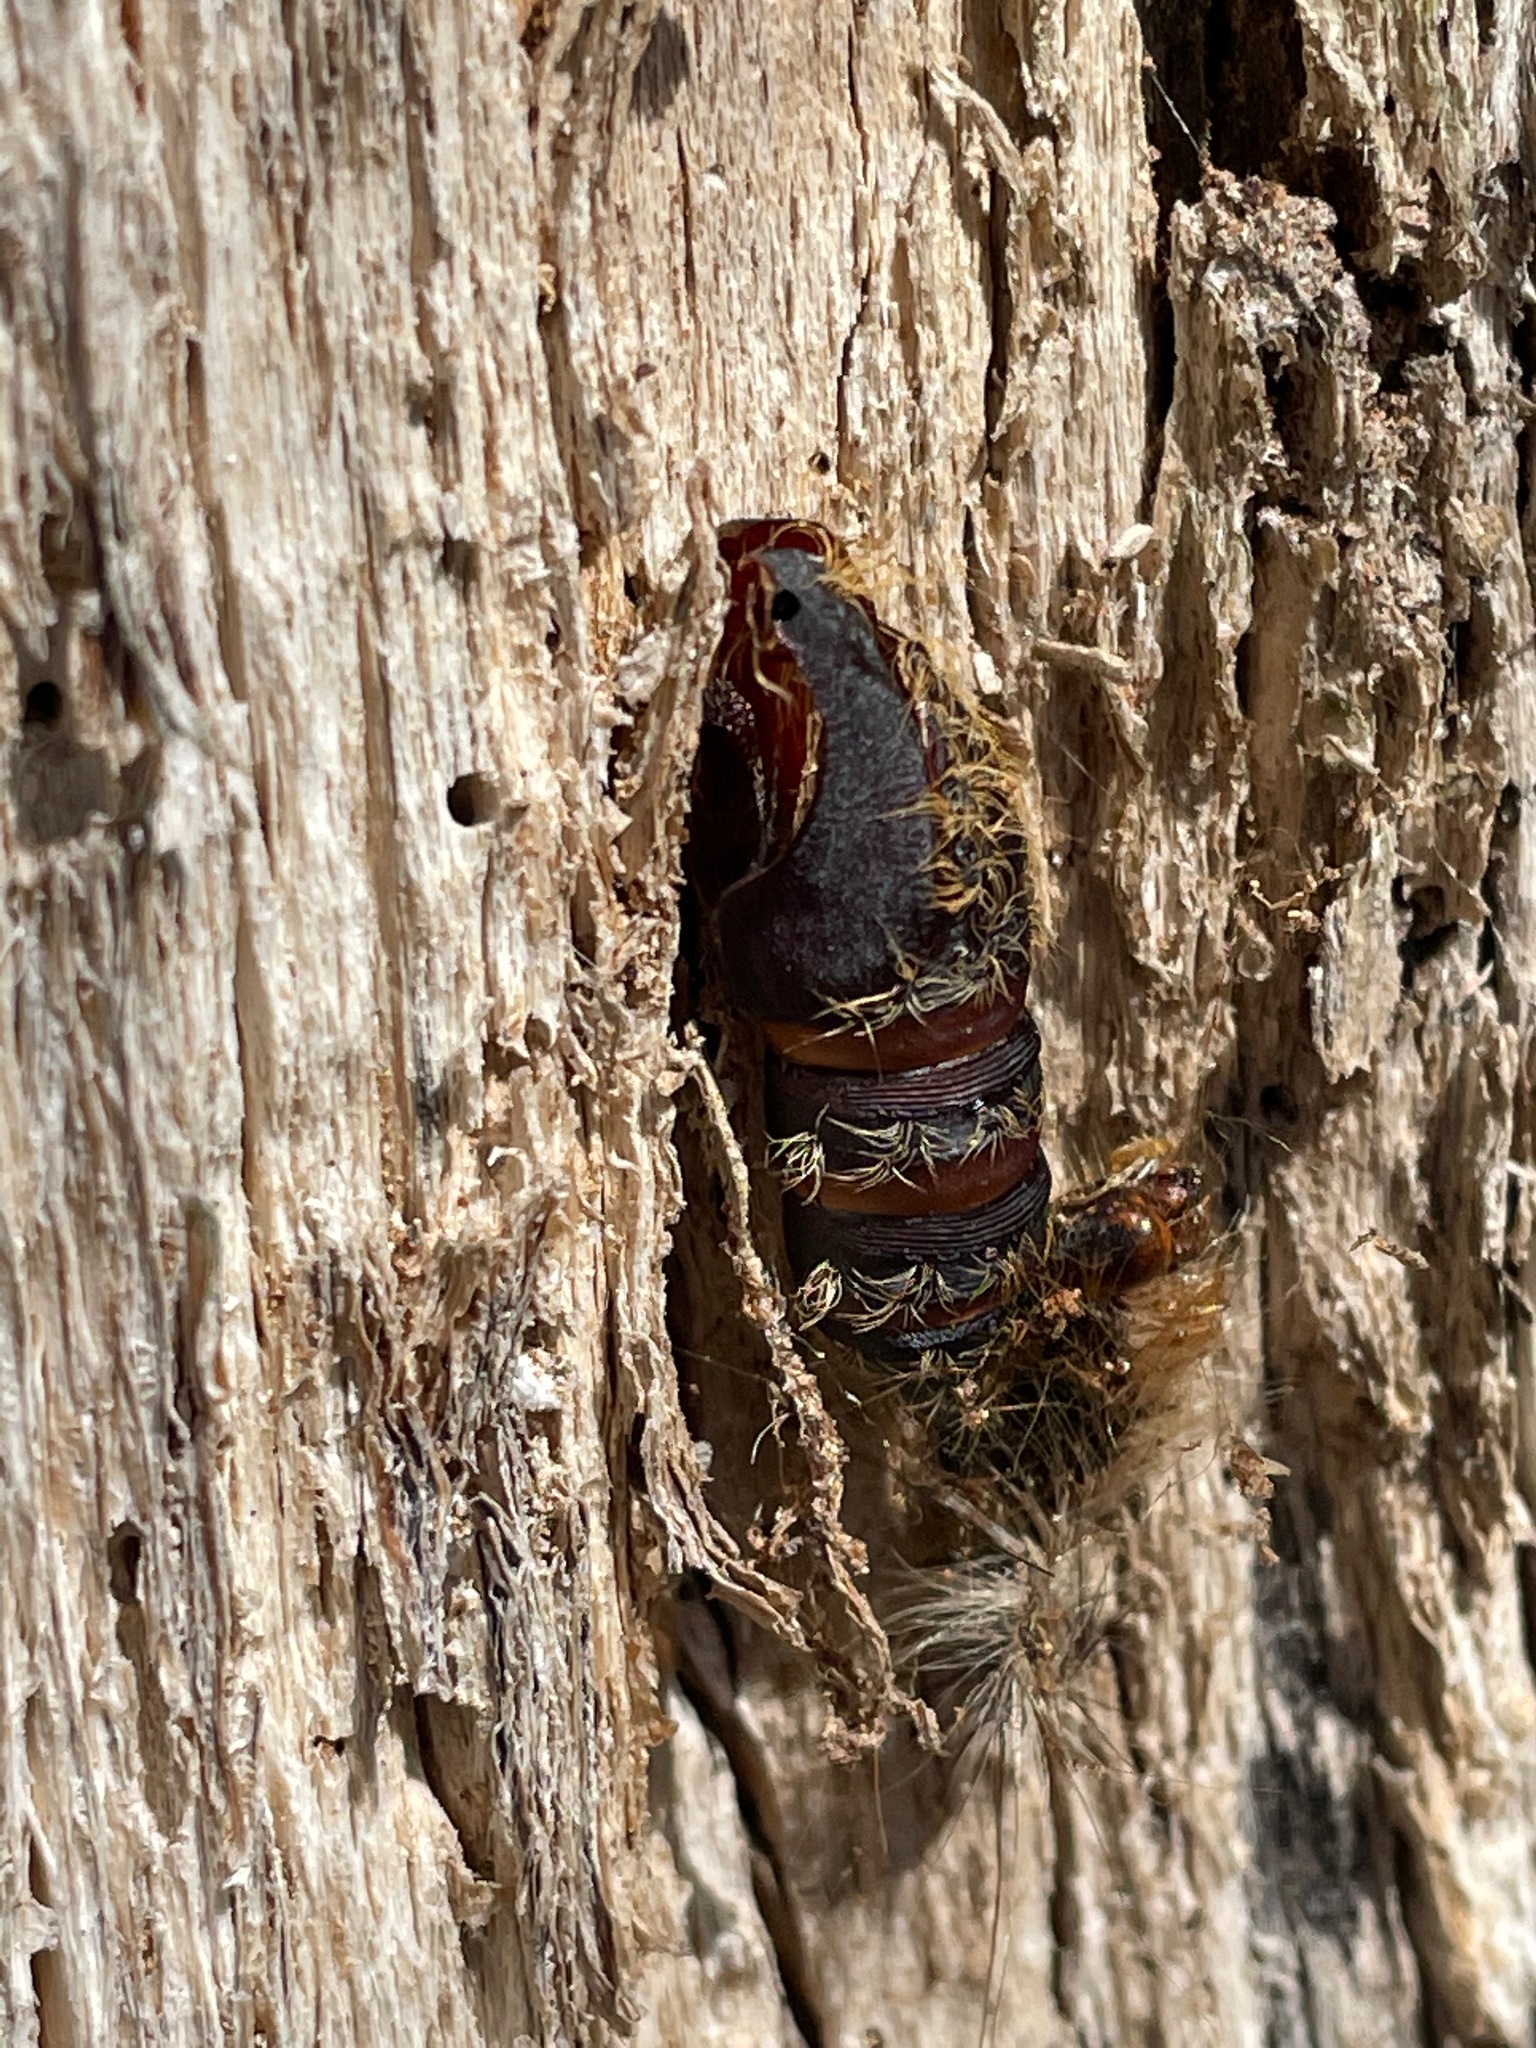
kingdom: Animalia
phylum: Arthropoda
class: Insecta
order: Lepidoptera
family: Erebidae
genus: Lymantria
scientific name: Lymantria dispar
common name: Gypsy moth
